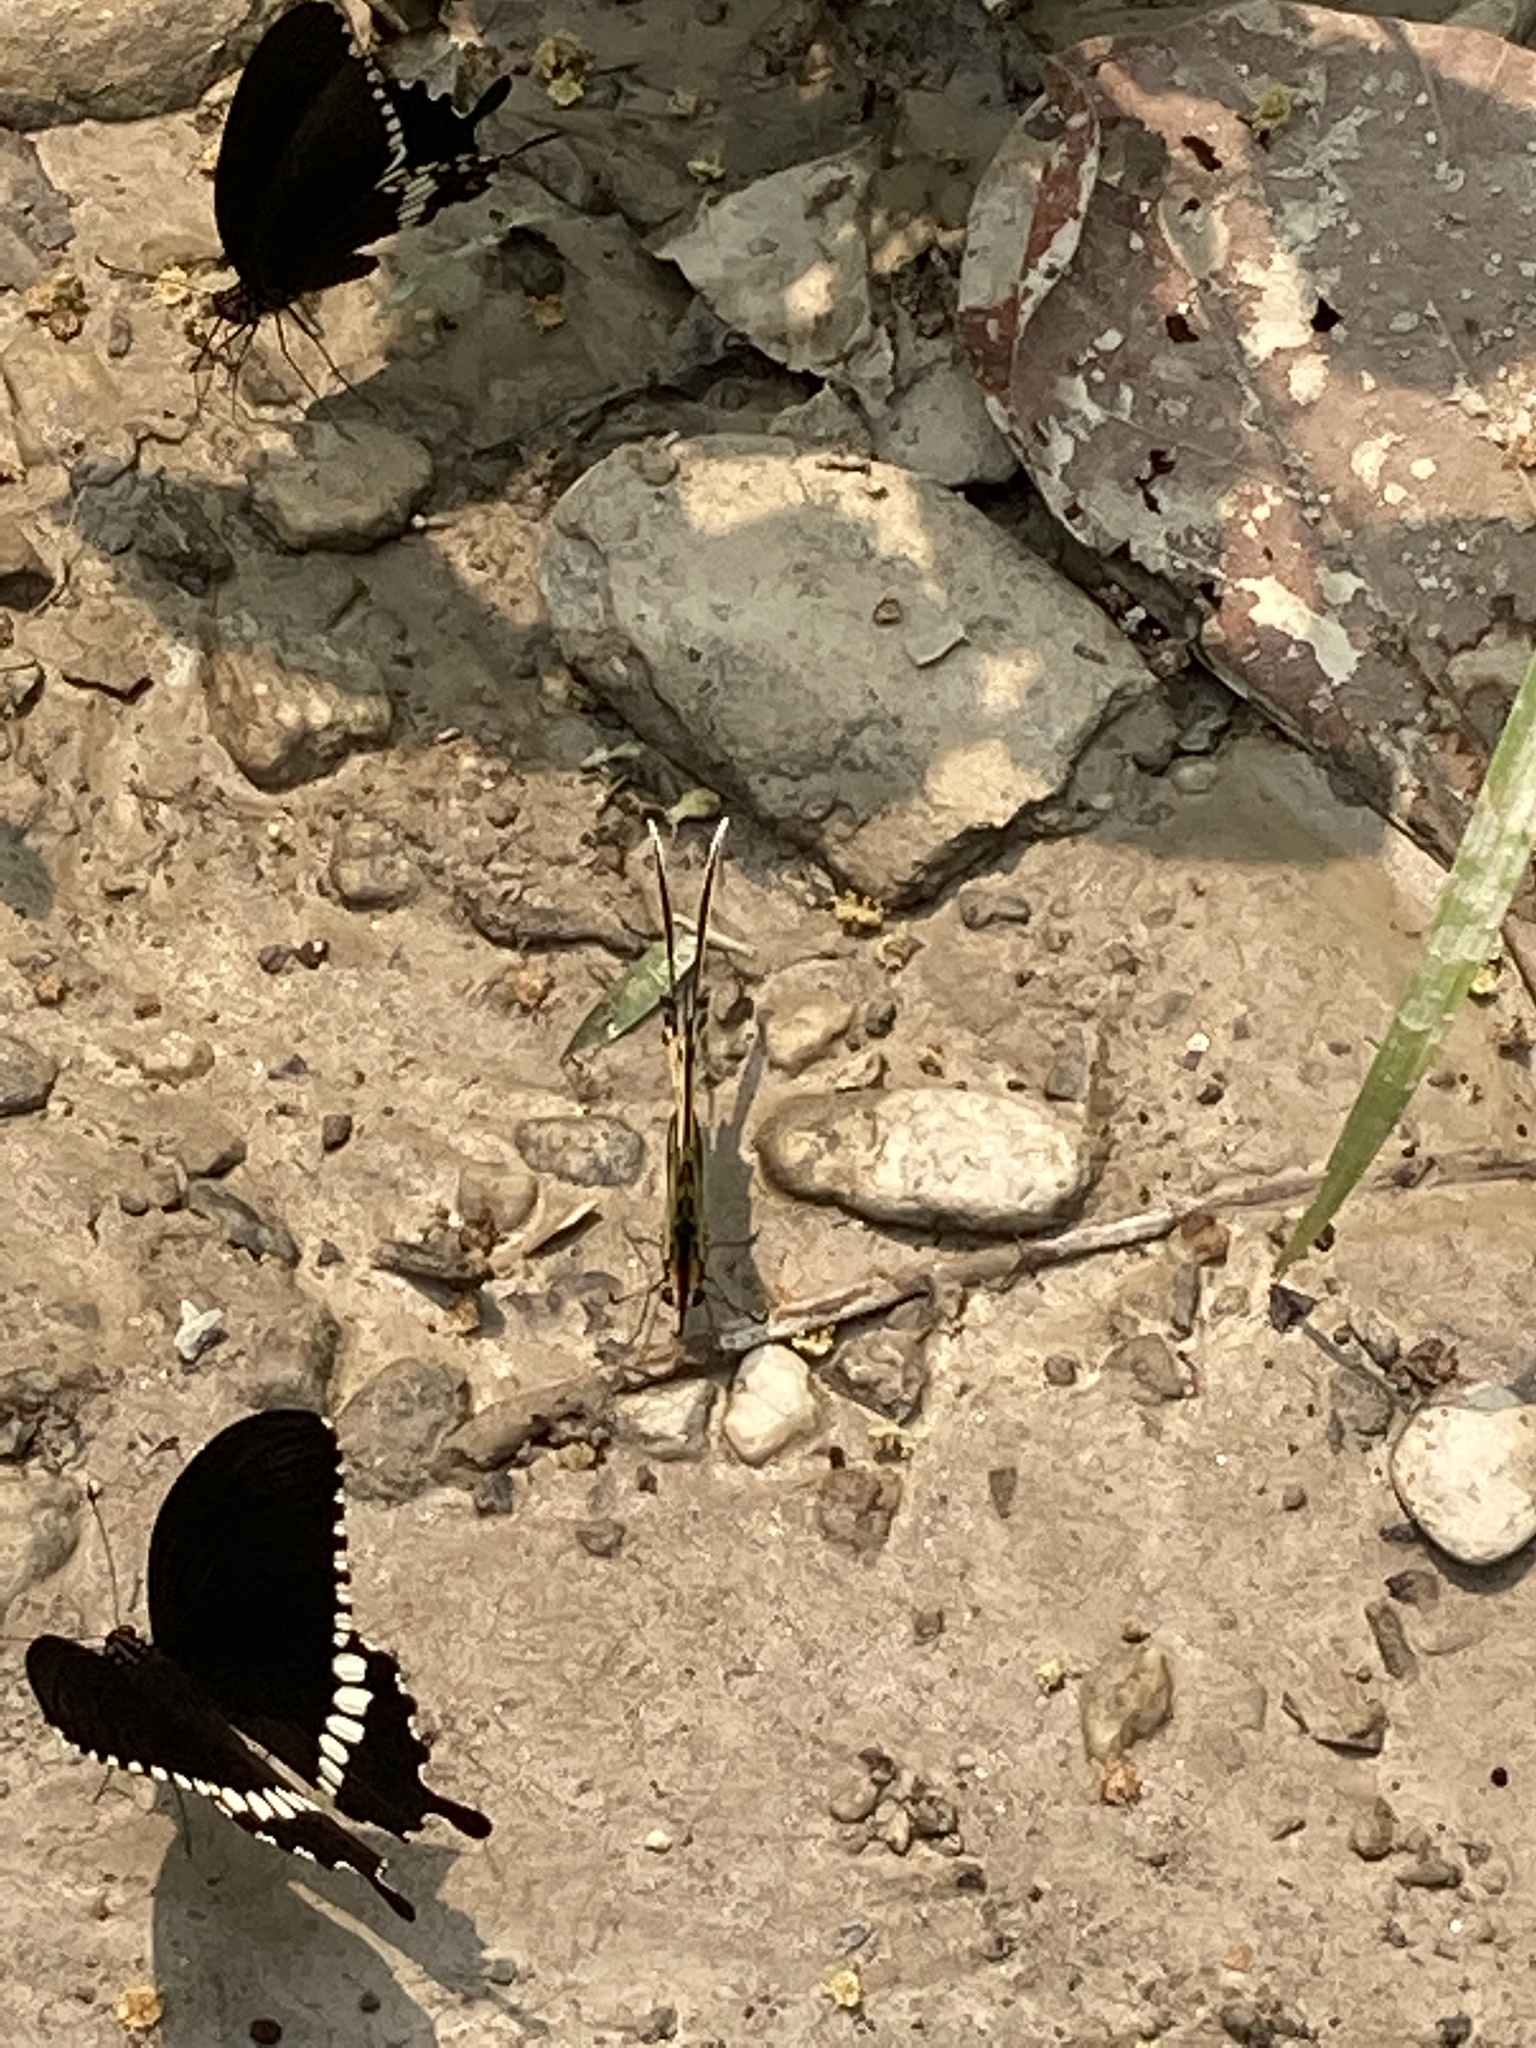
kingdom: Animalia
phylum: Arthropoda
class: Insecta
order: Lepidoptera
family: Papilionidae
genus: Papilio
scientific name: Papilio polytes
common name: Common mormon
